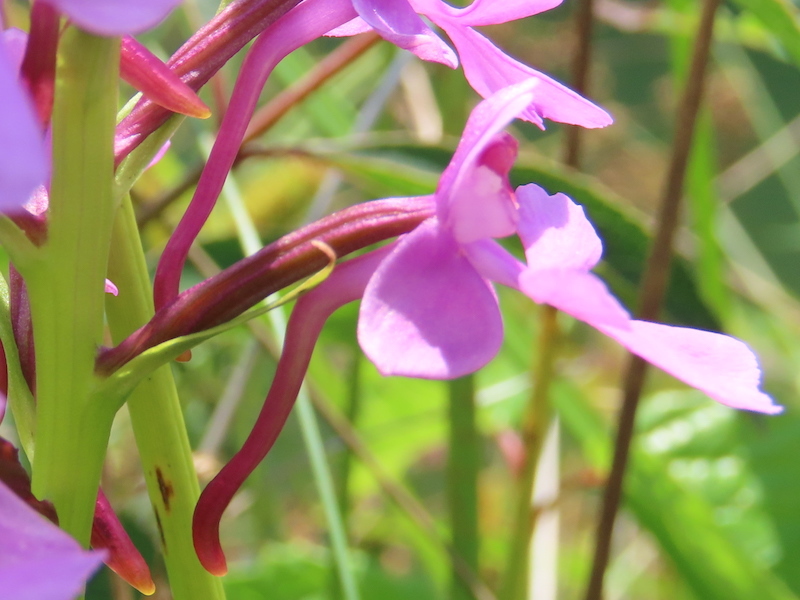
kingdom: Plantae
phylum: Tracheophyta
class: Liliopsida
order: Asparagales
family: Orchidaceae
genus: Platanthera
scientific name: Platanthera peramoena
